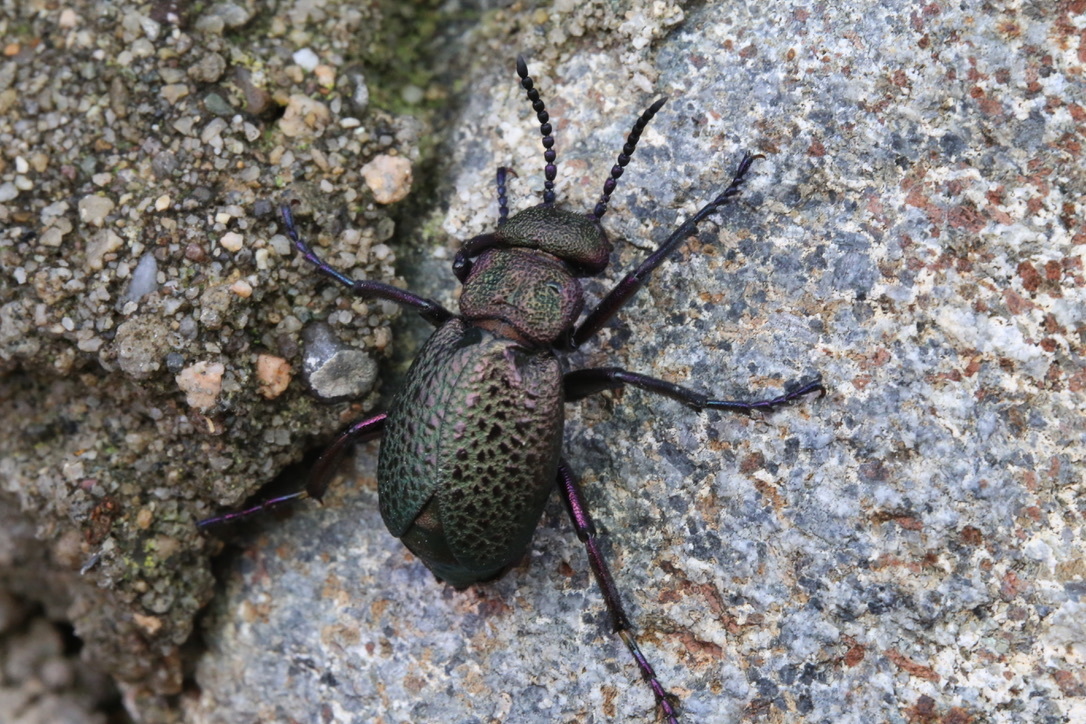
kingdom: Animalia
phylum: Arthropoda
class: Insecta
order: Coleoptera
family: Meloidae
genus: Meloe
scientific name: Meloe cavensis
